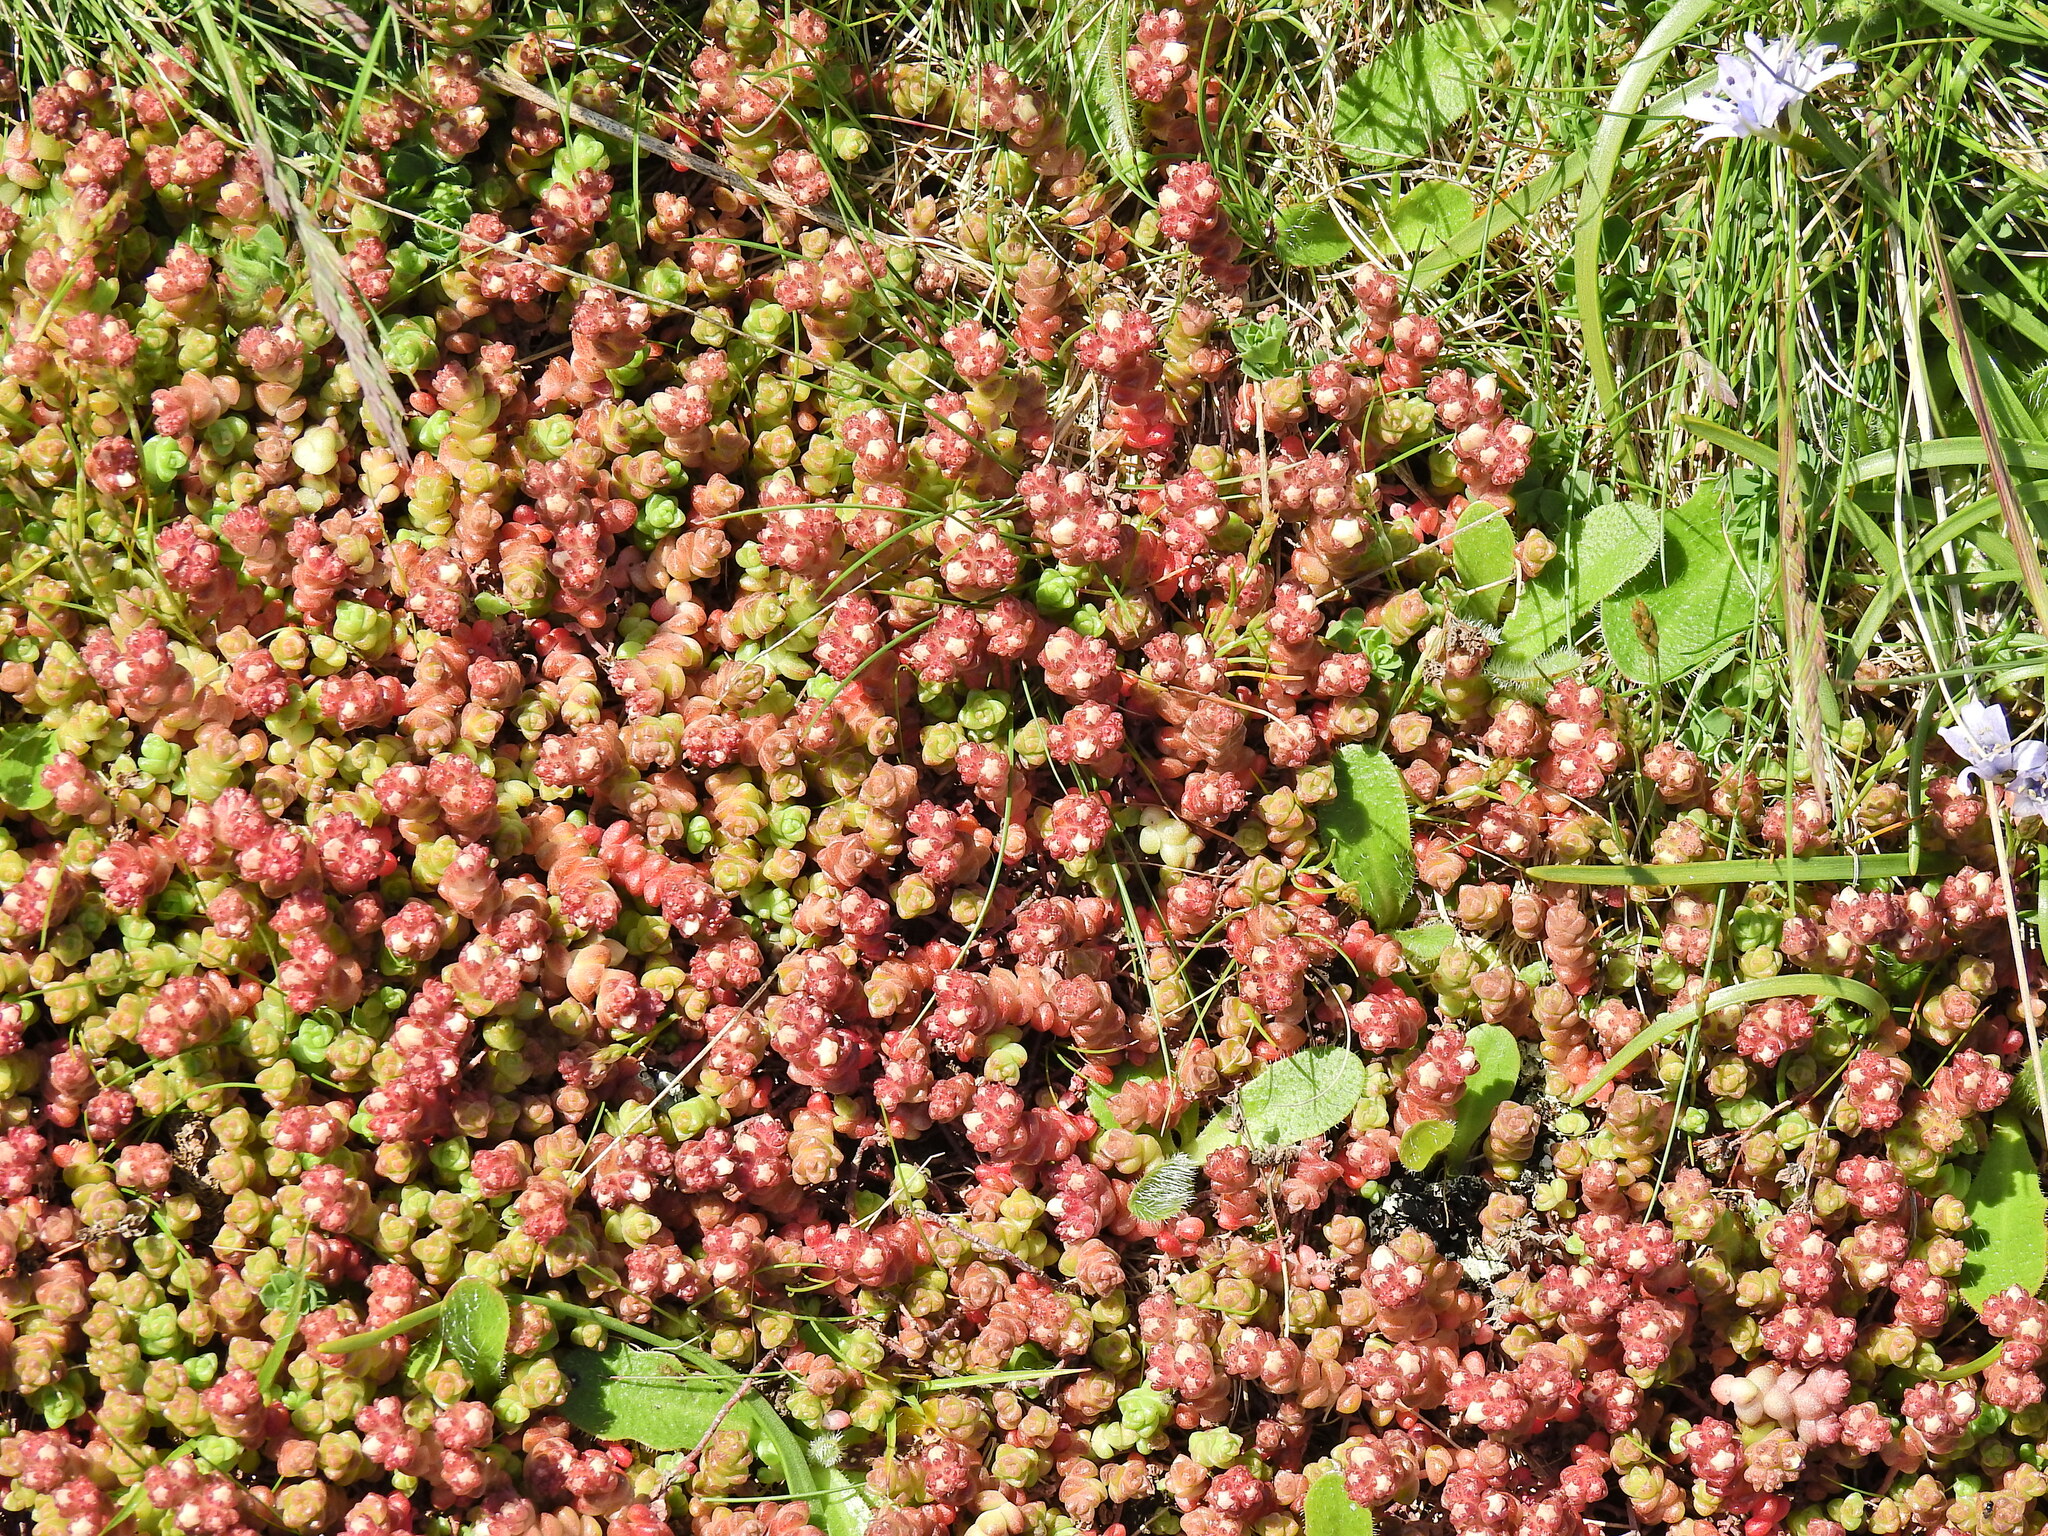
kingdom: Plantae
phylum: Tracheophyta
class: Magnoliopsida
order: Saxifragales
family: Crassulaceae
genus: Sedum
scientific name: Sedum anglicum
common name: English stonecrop
